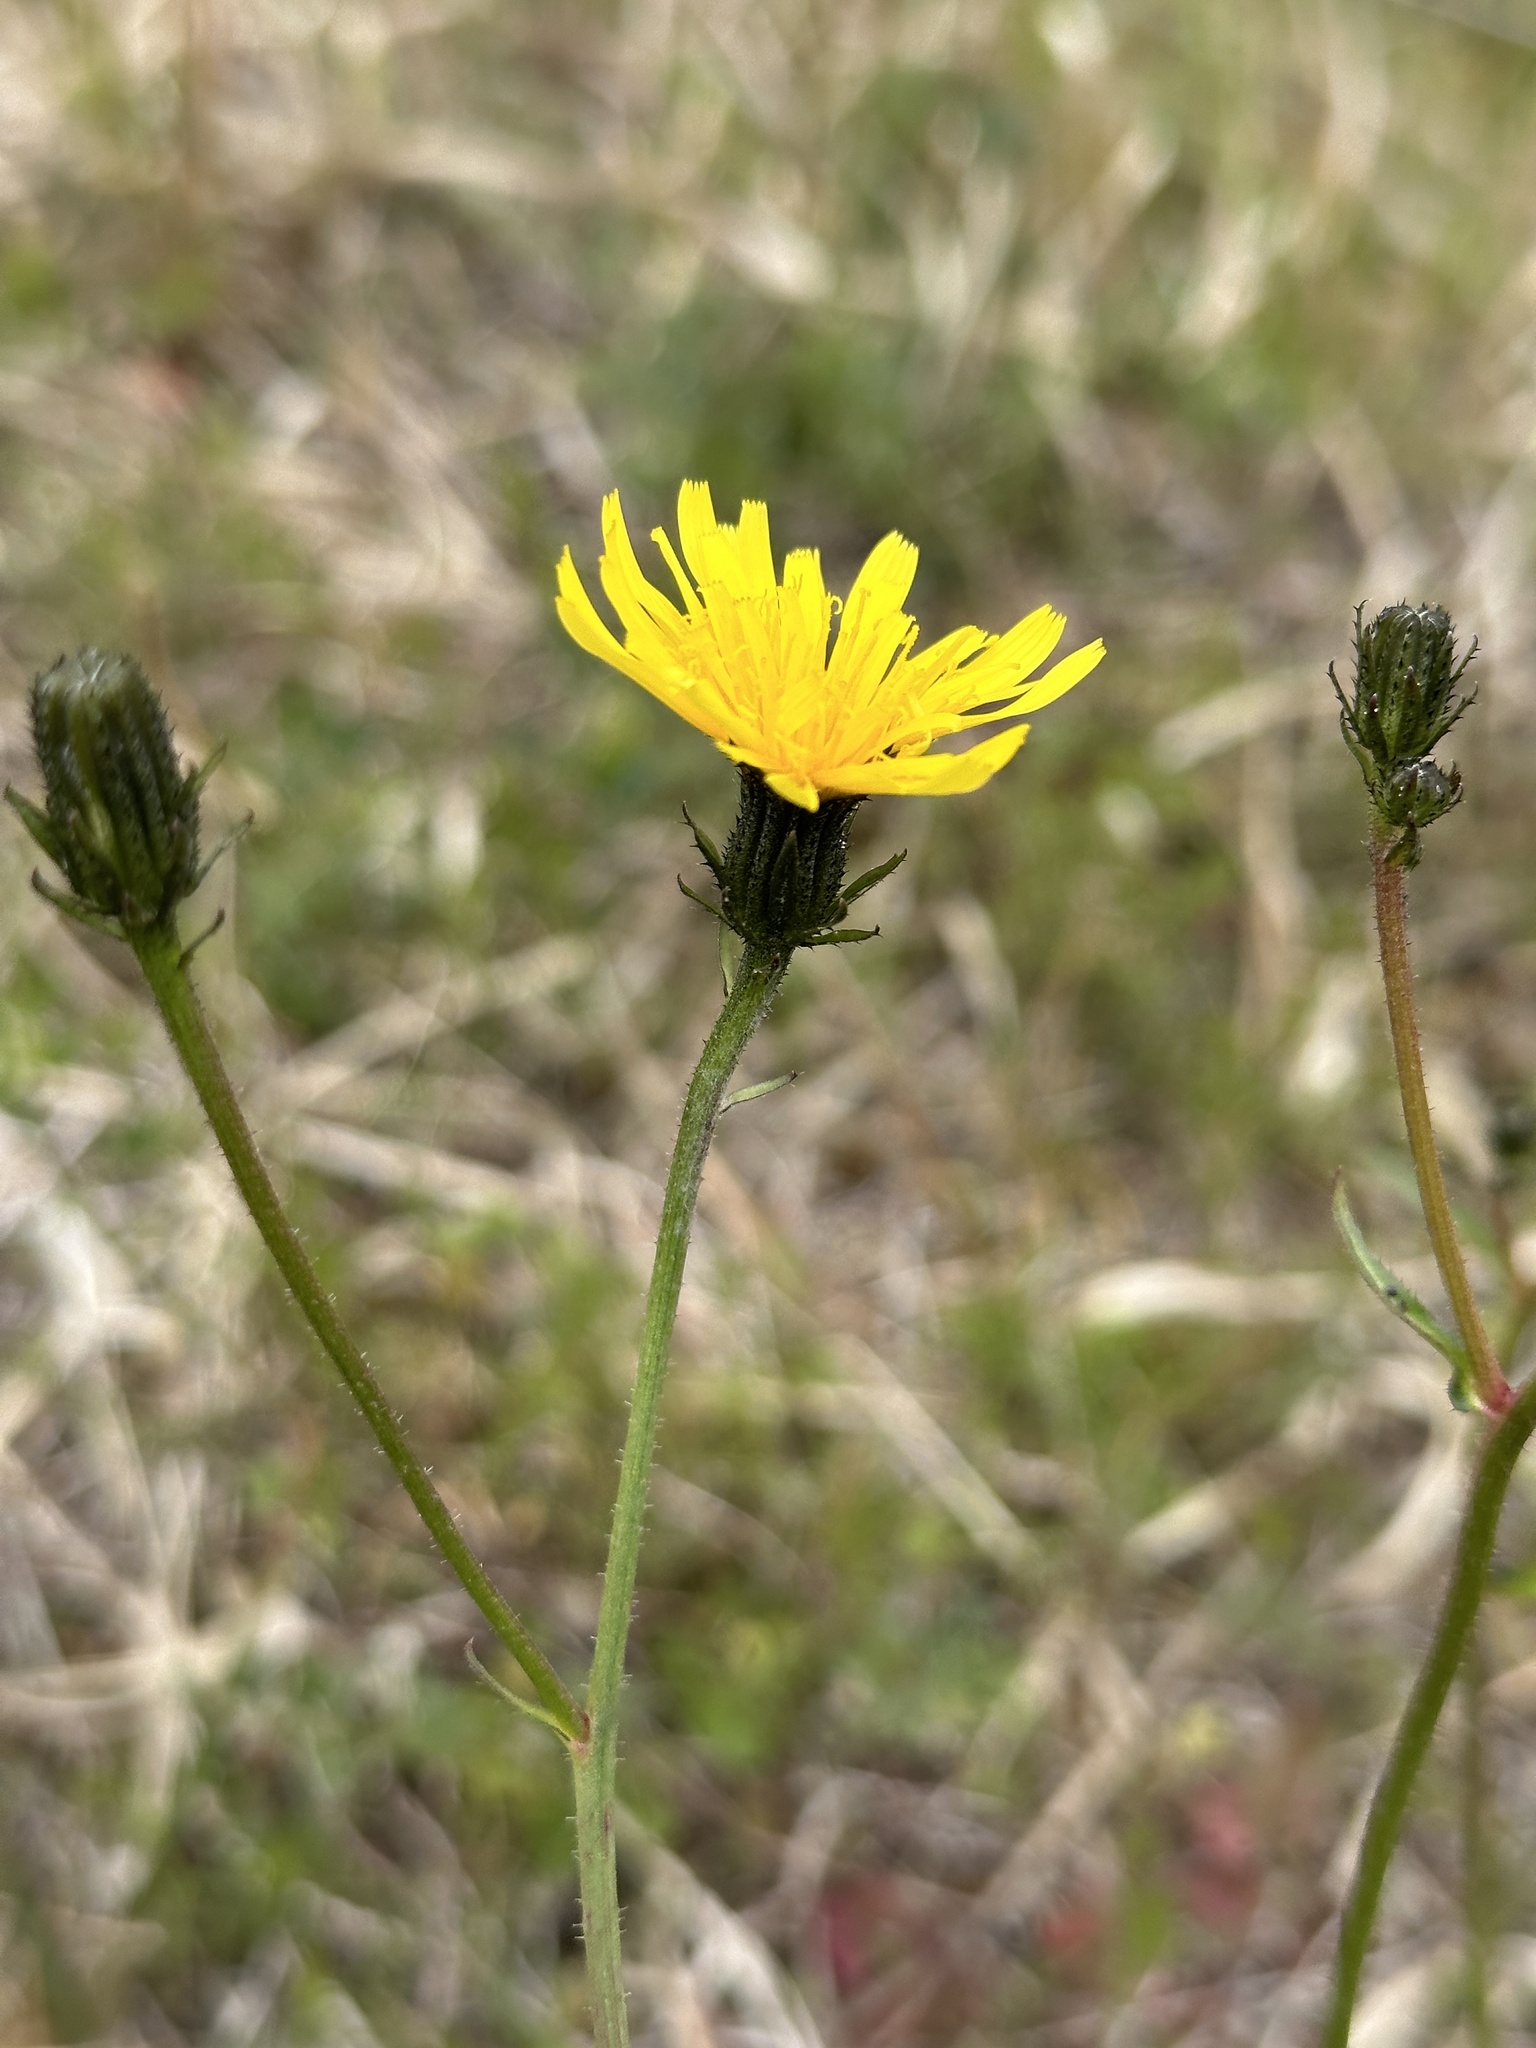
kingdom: Plantae
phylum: Tracheophyta
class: Magnoliopsida
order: Asterales
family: Asteraceae
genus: Picris
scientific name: Picris japonica
